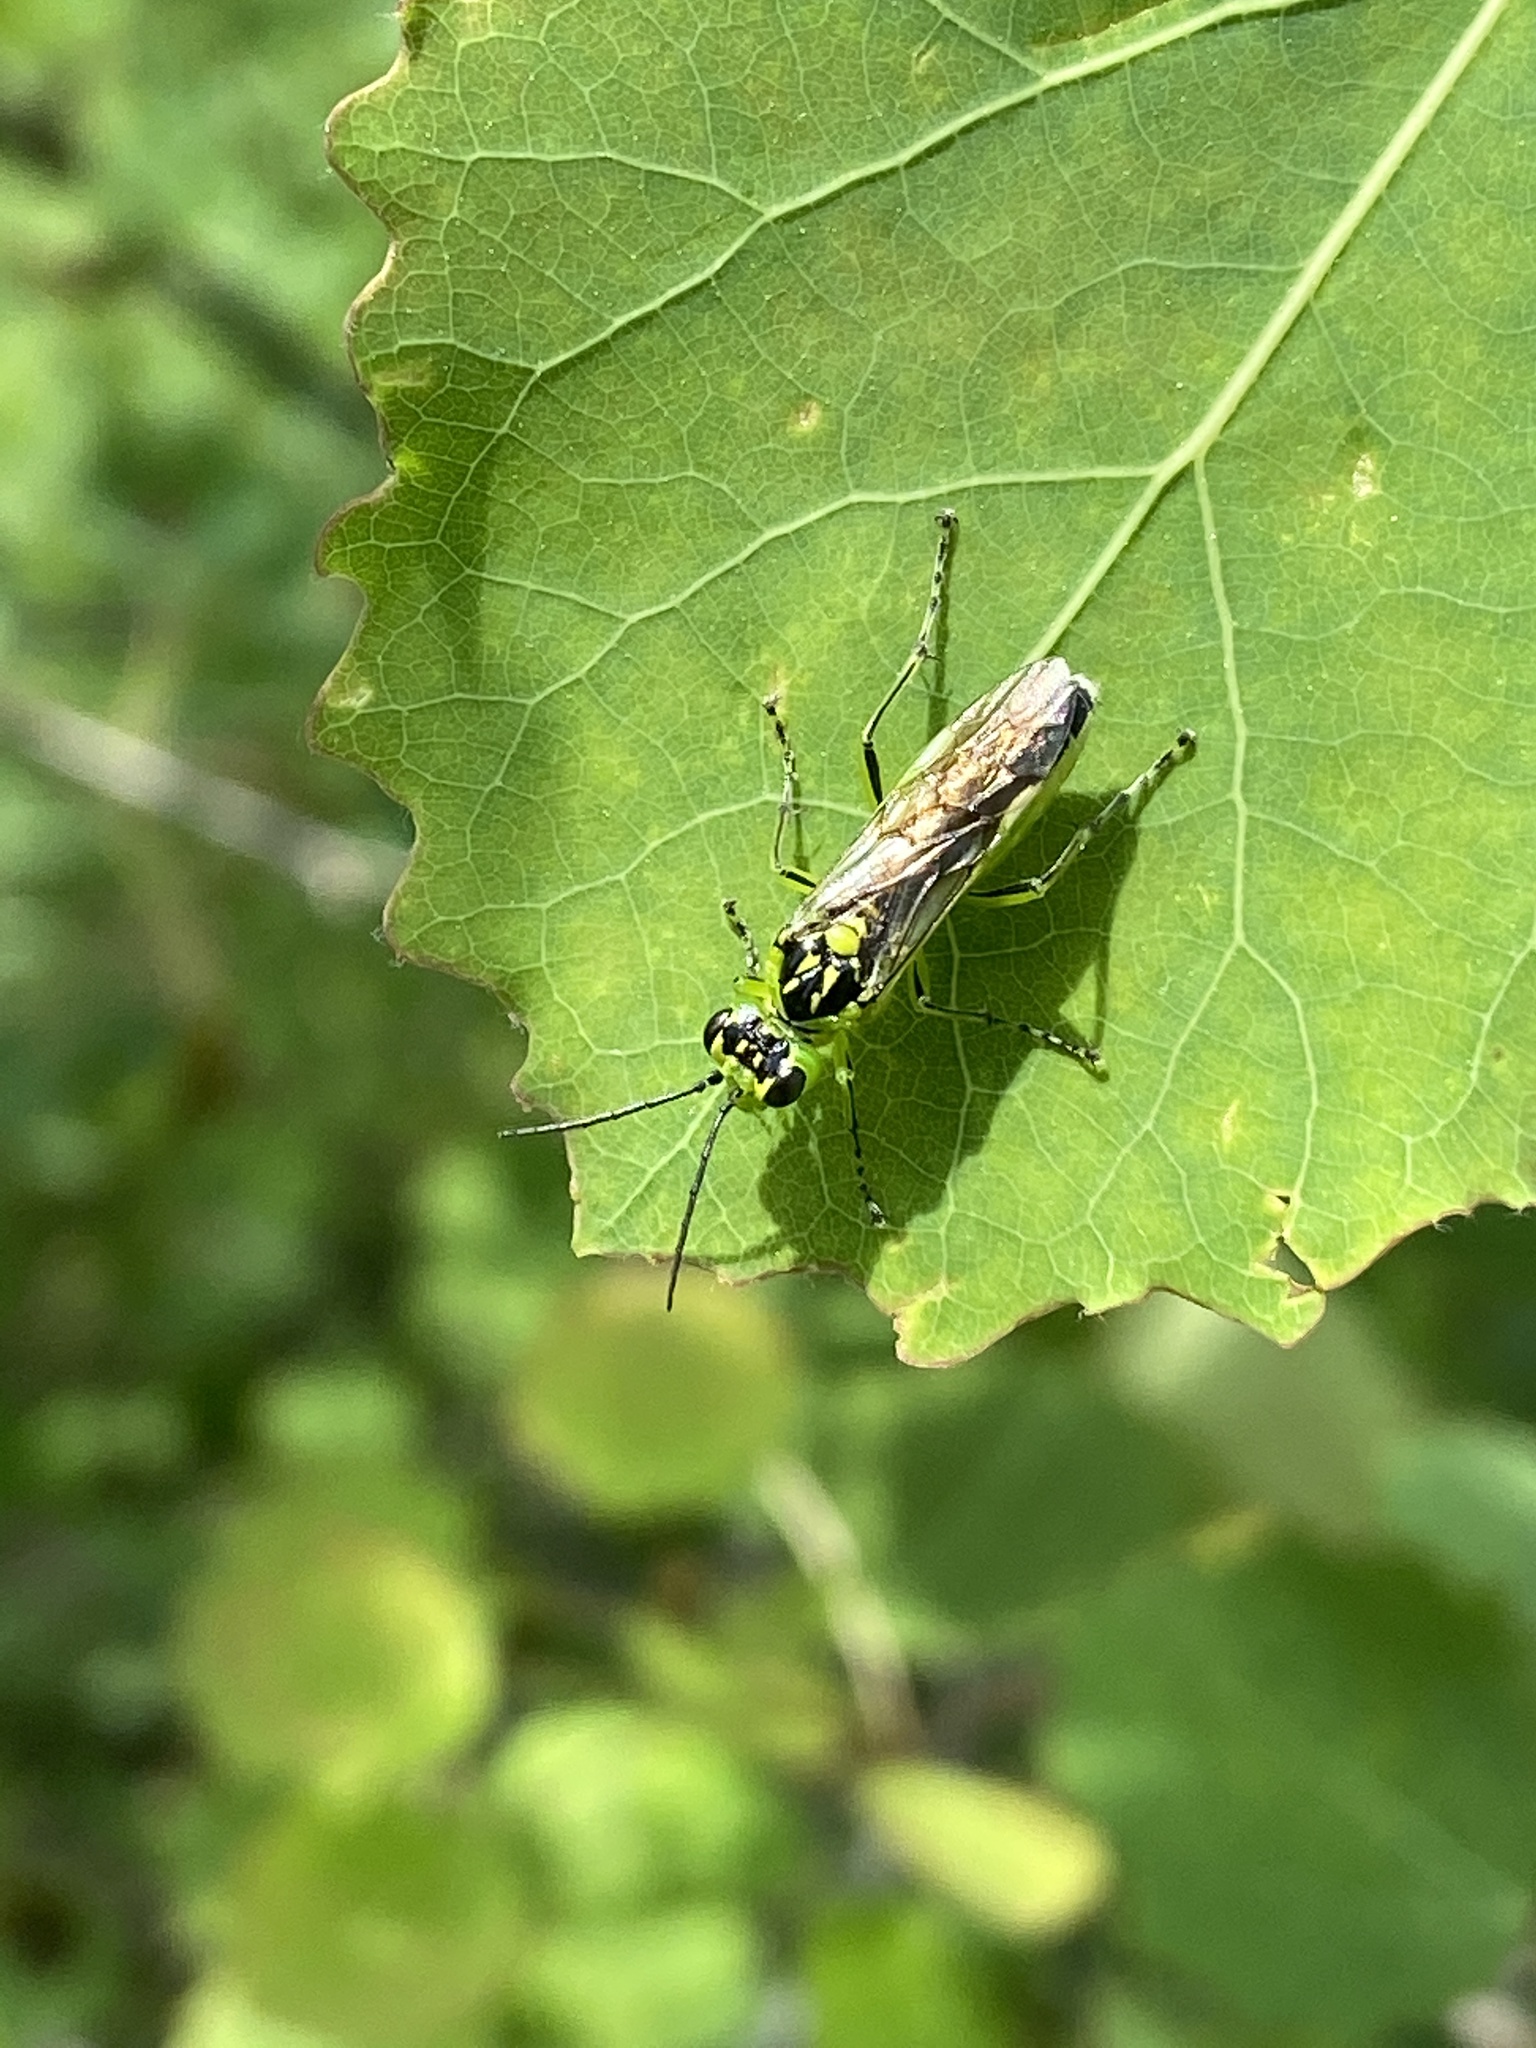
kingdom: Animalia
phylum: Arthropoda
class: Insecta
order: Hymenoptera
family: Tenthredinidae
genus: Rhogogaster
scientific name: Rhogogaster viridis
